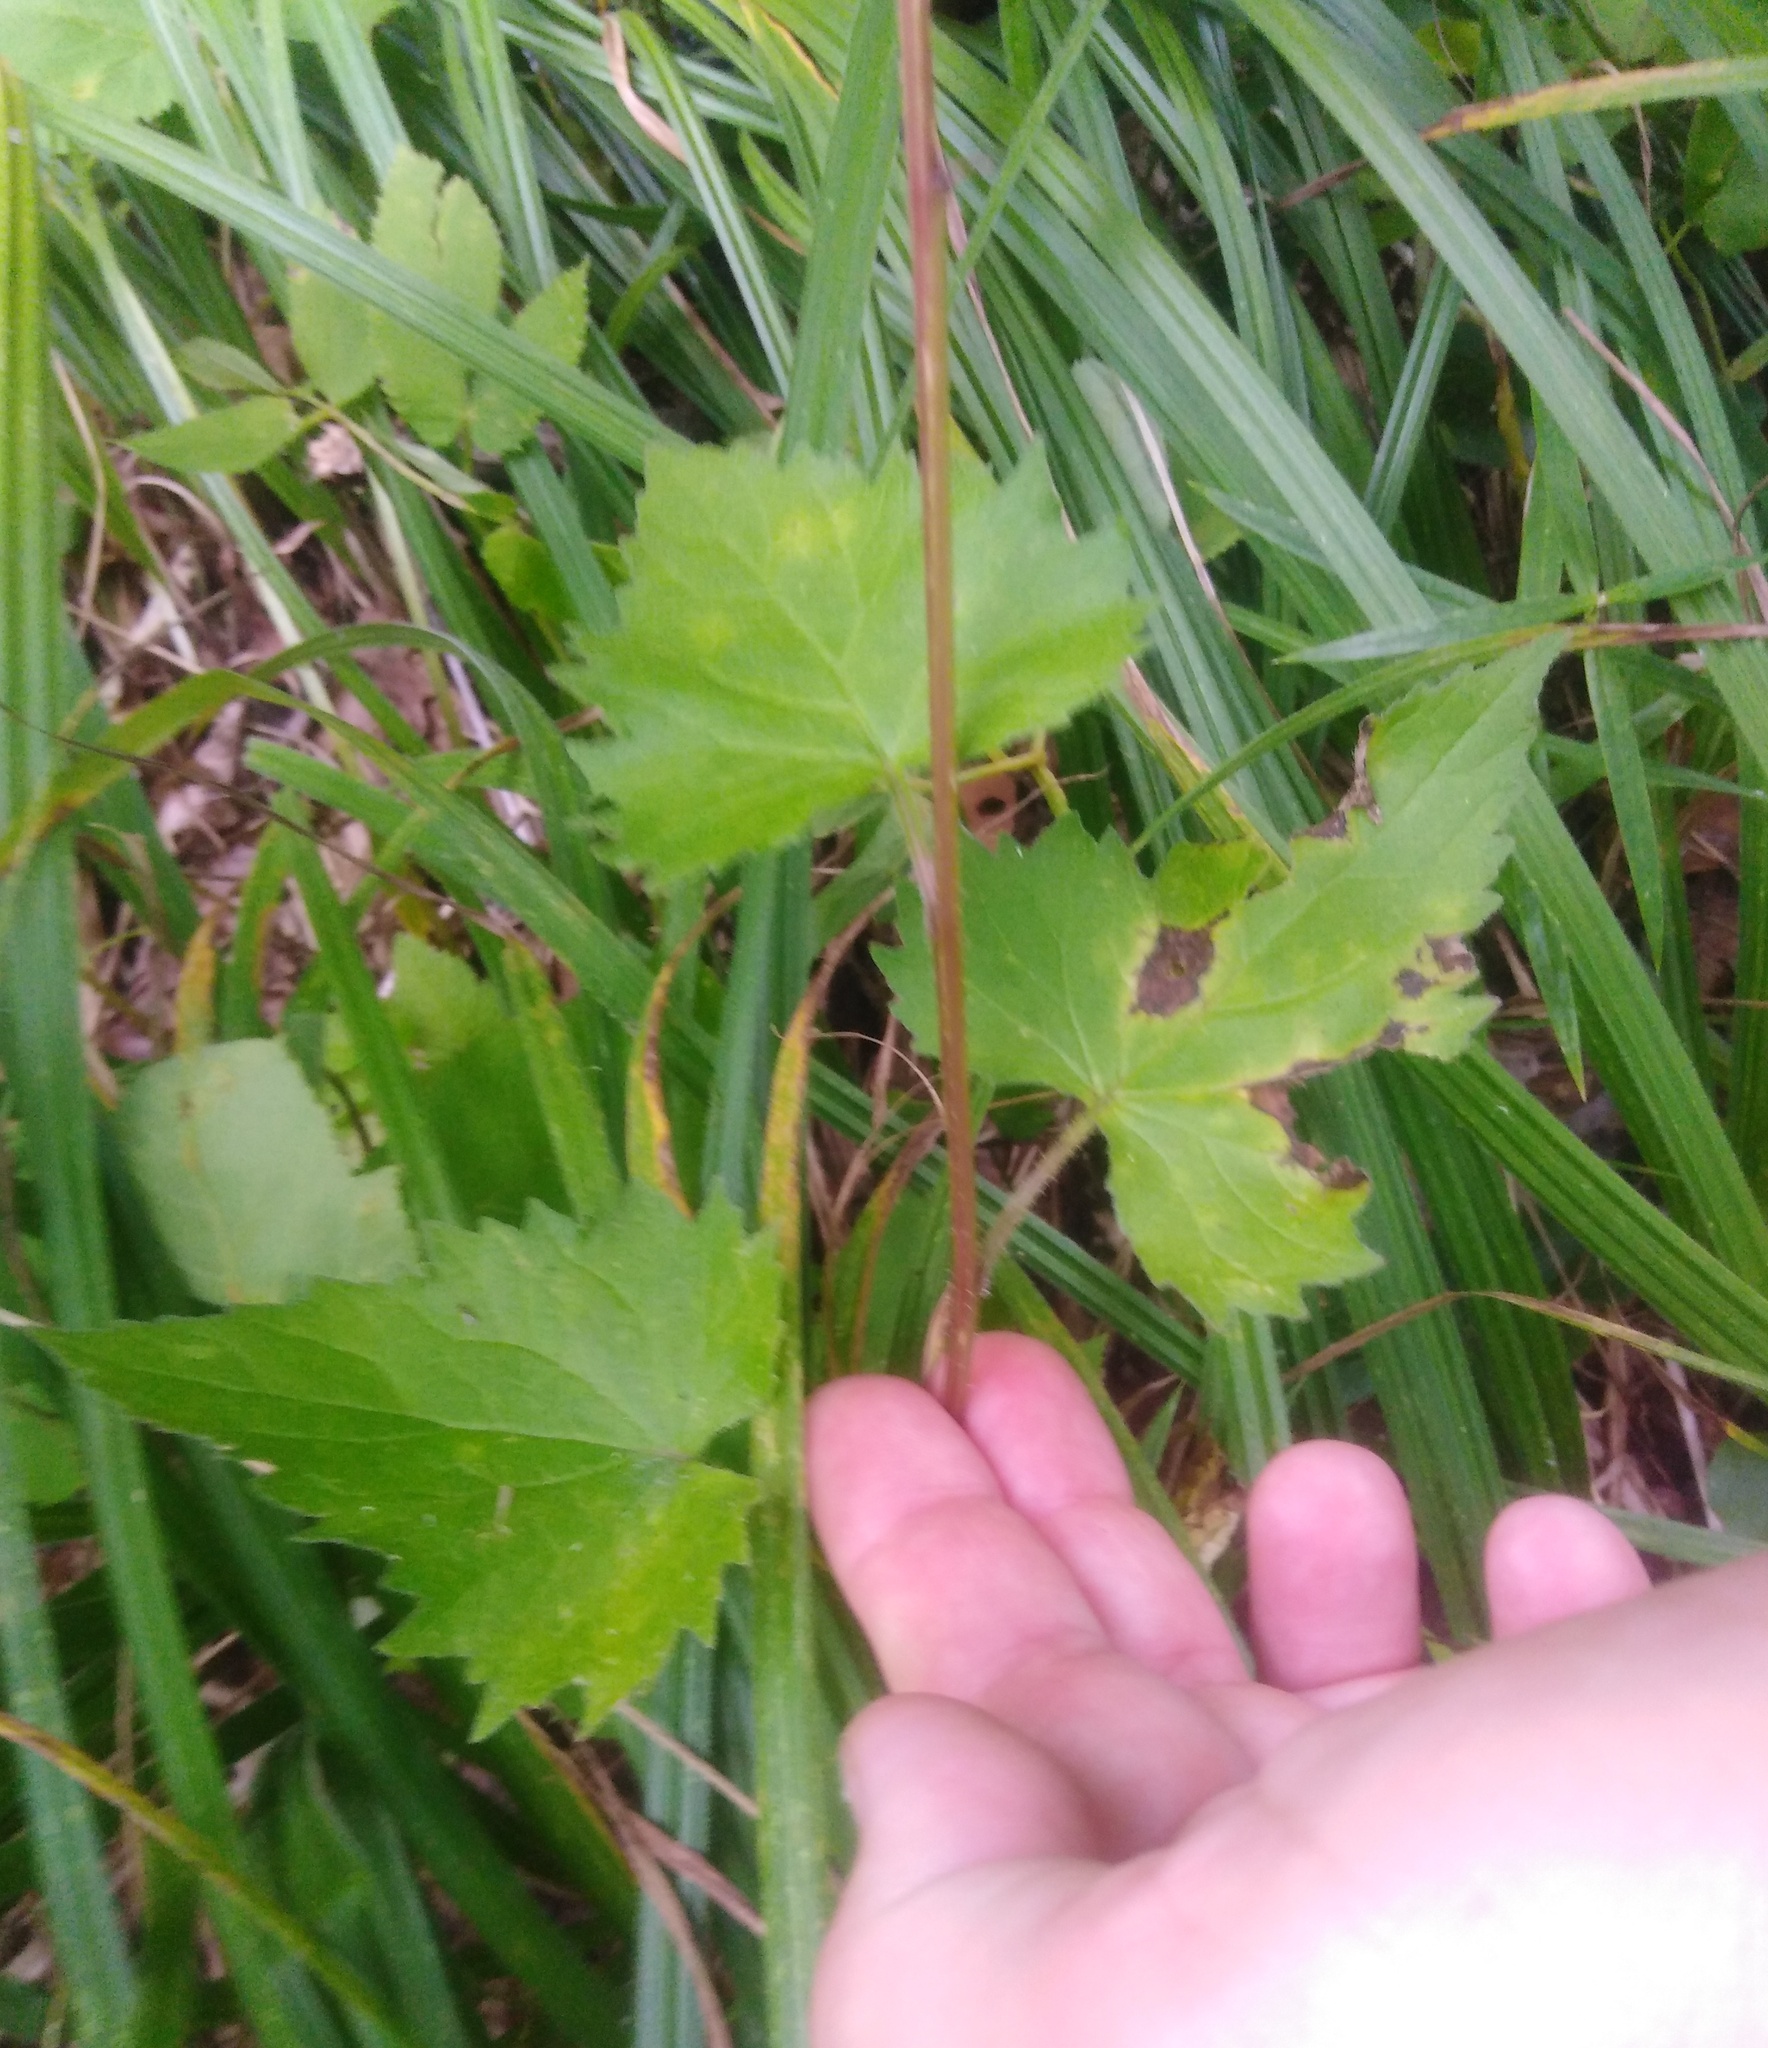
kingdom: Plantae
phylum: Tracheophyta
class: Magnoliopsida
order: Asterales
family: Campanulaceae
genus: Campanula
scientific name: Campanula trachelium
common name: Nettle-leaved bellflower
